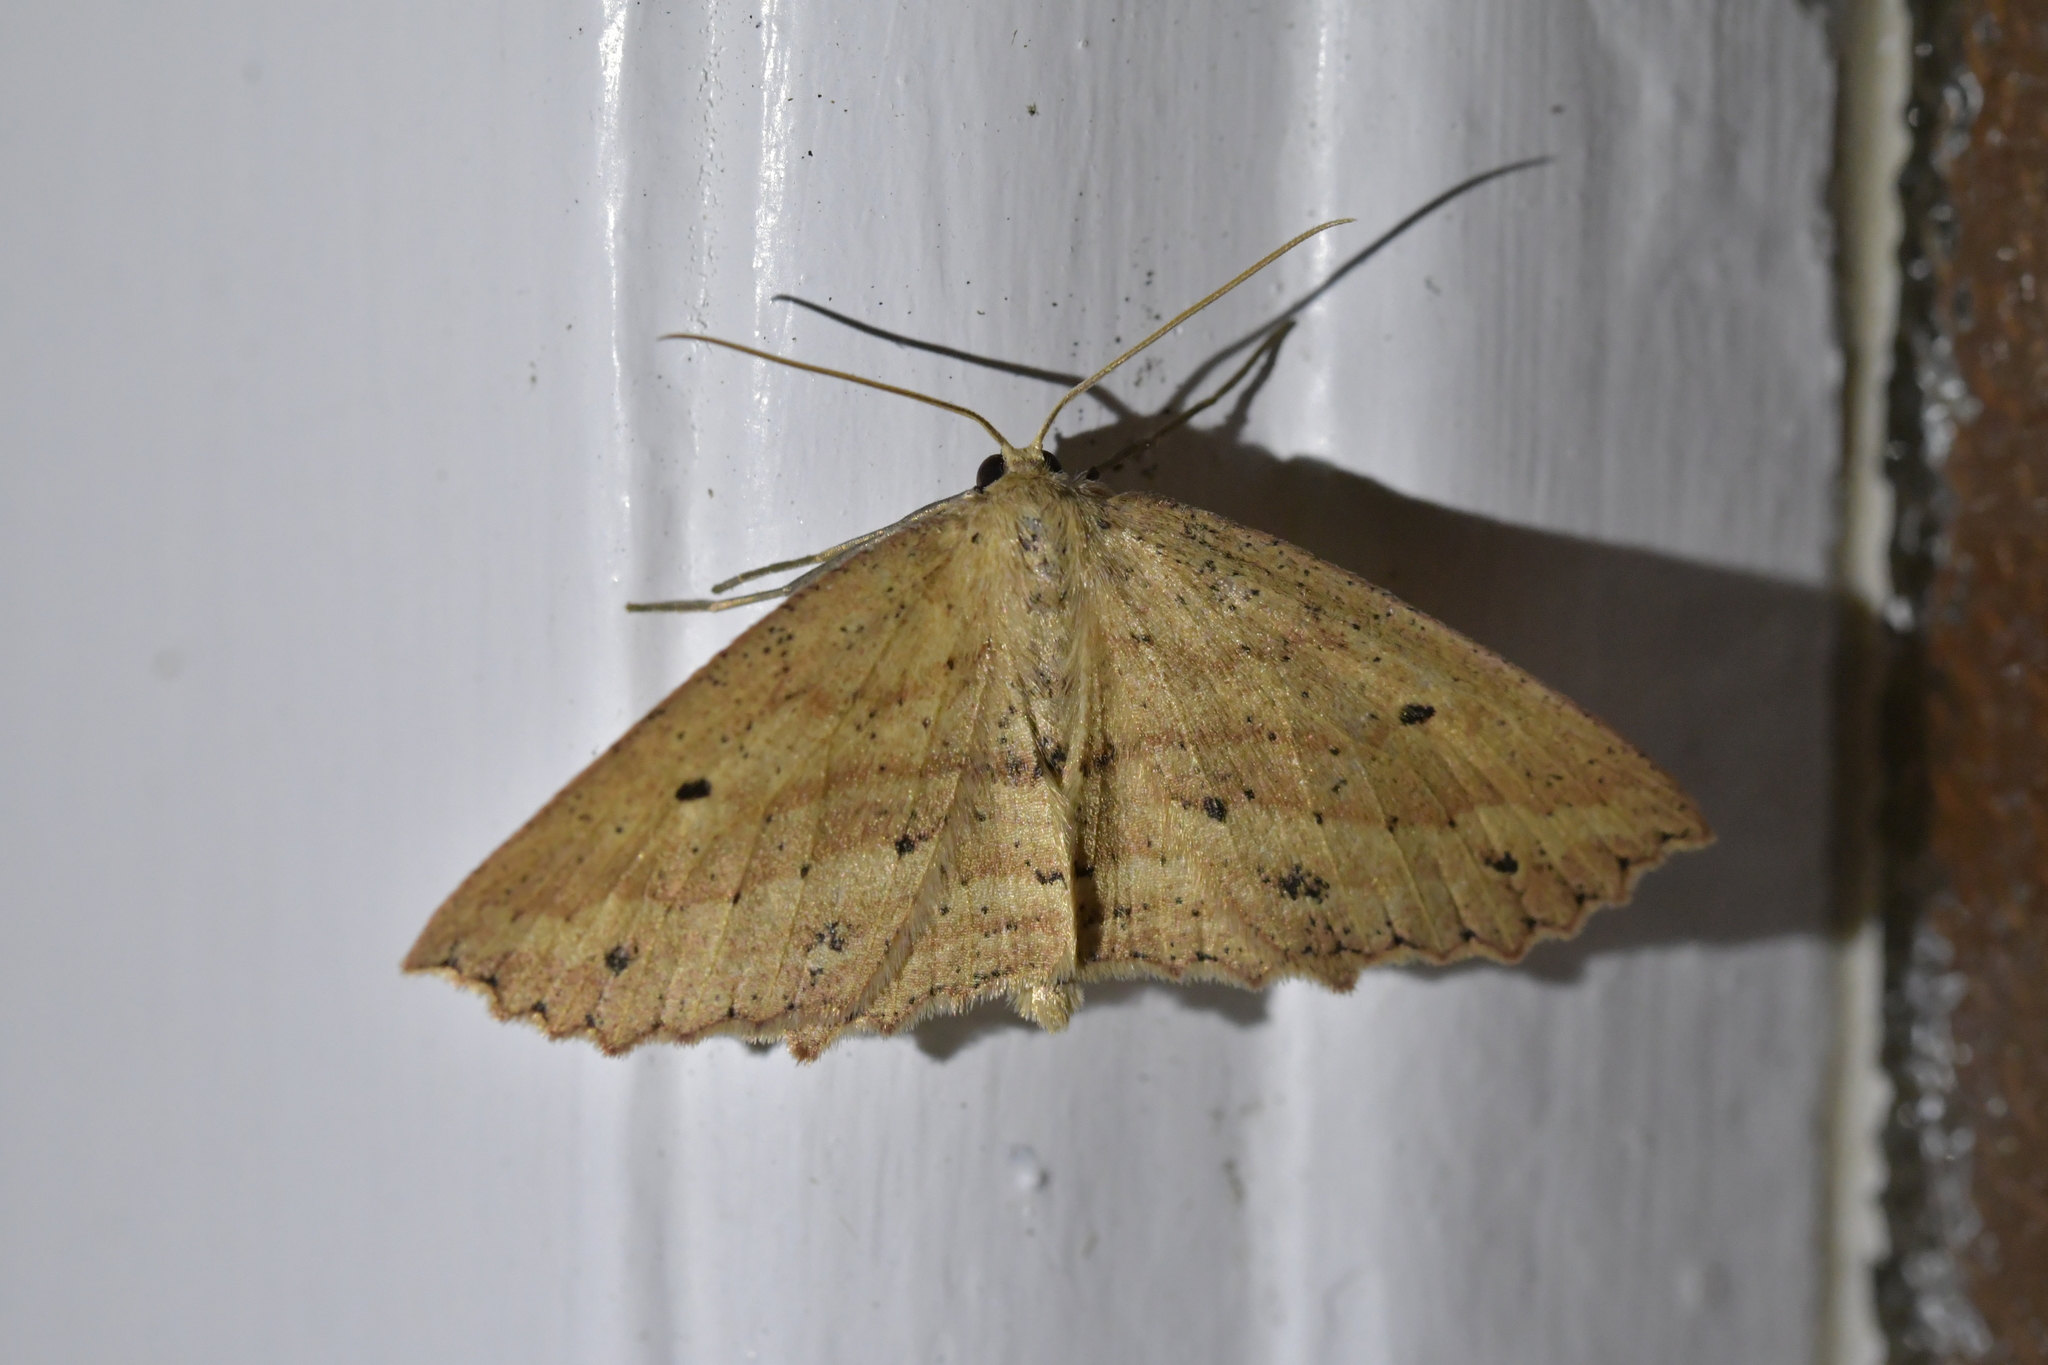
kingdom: Animalia
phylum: Arthropoda
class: Insecta
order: Lepidoptera
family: Geometridae
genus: Xyridacma
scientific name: Xyridacma veronicae
